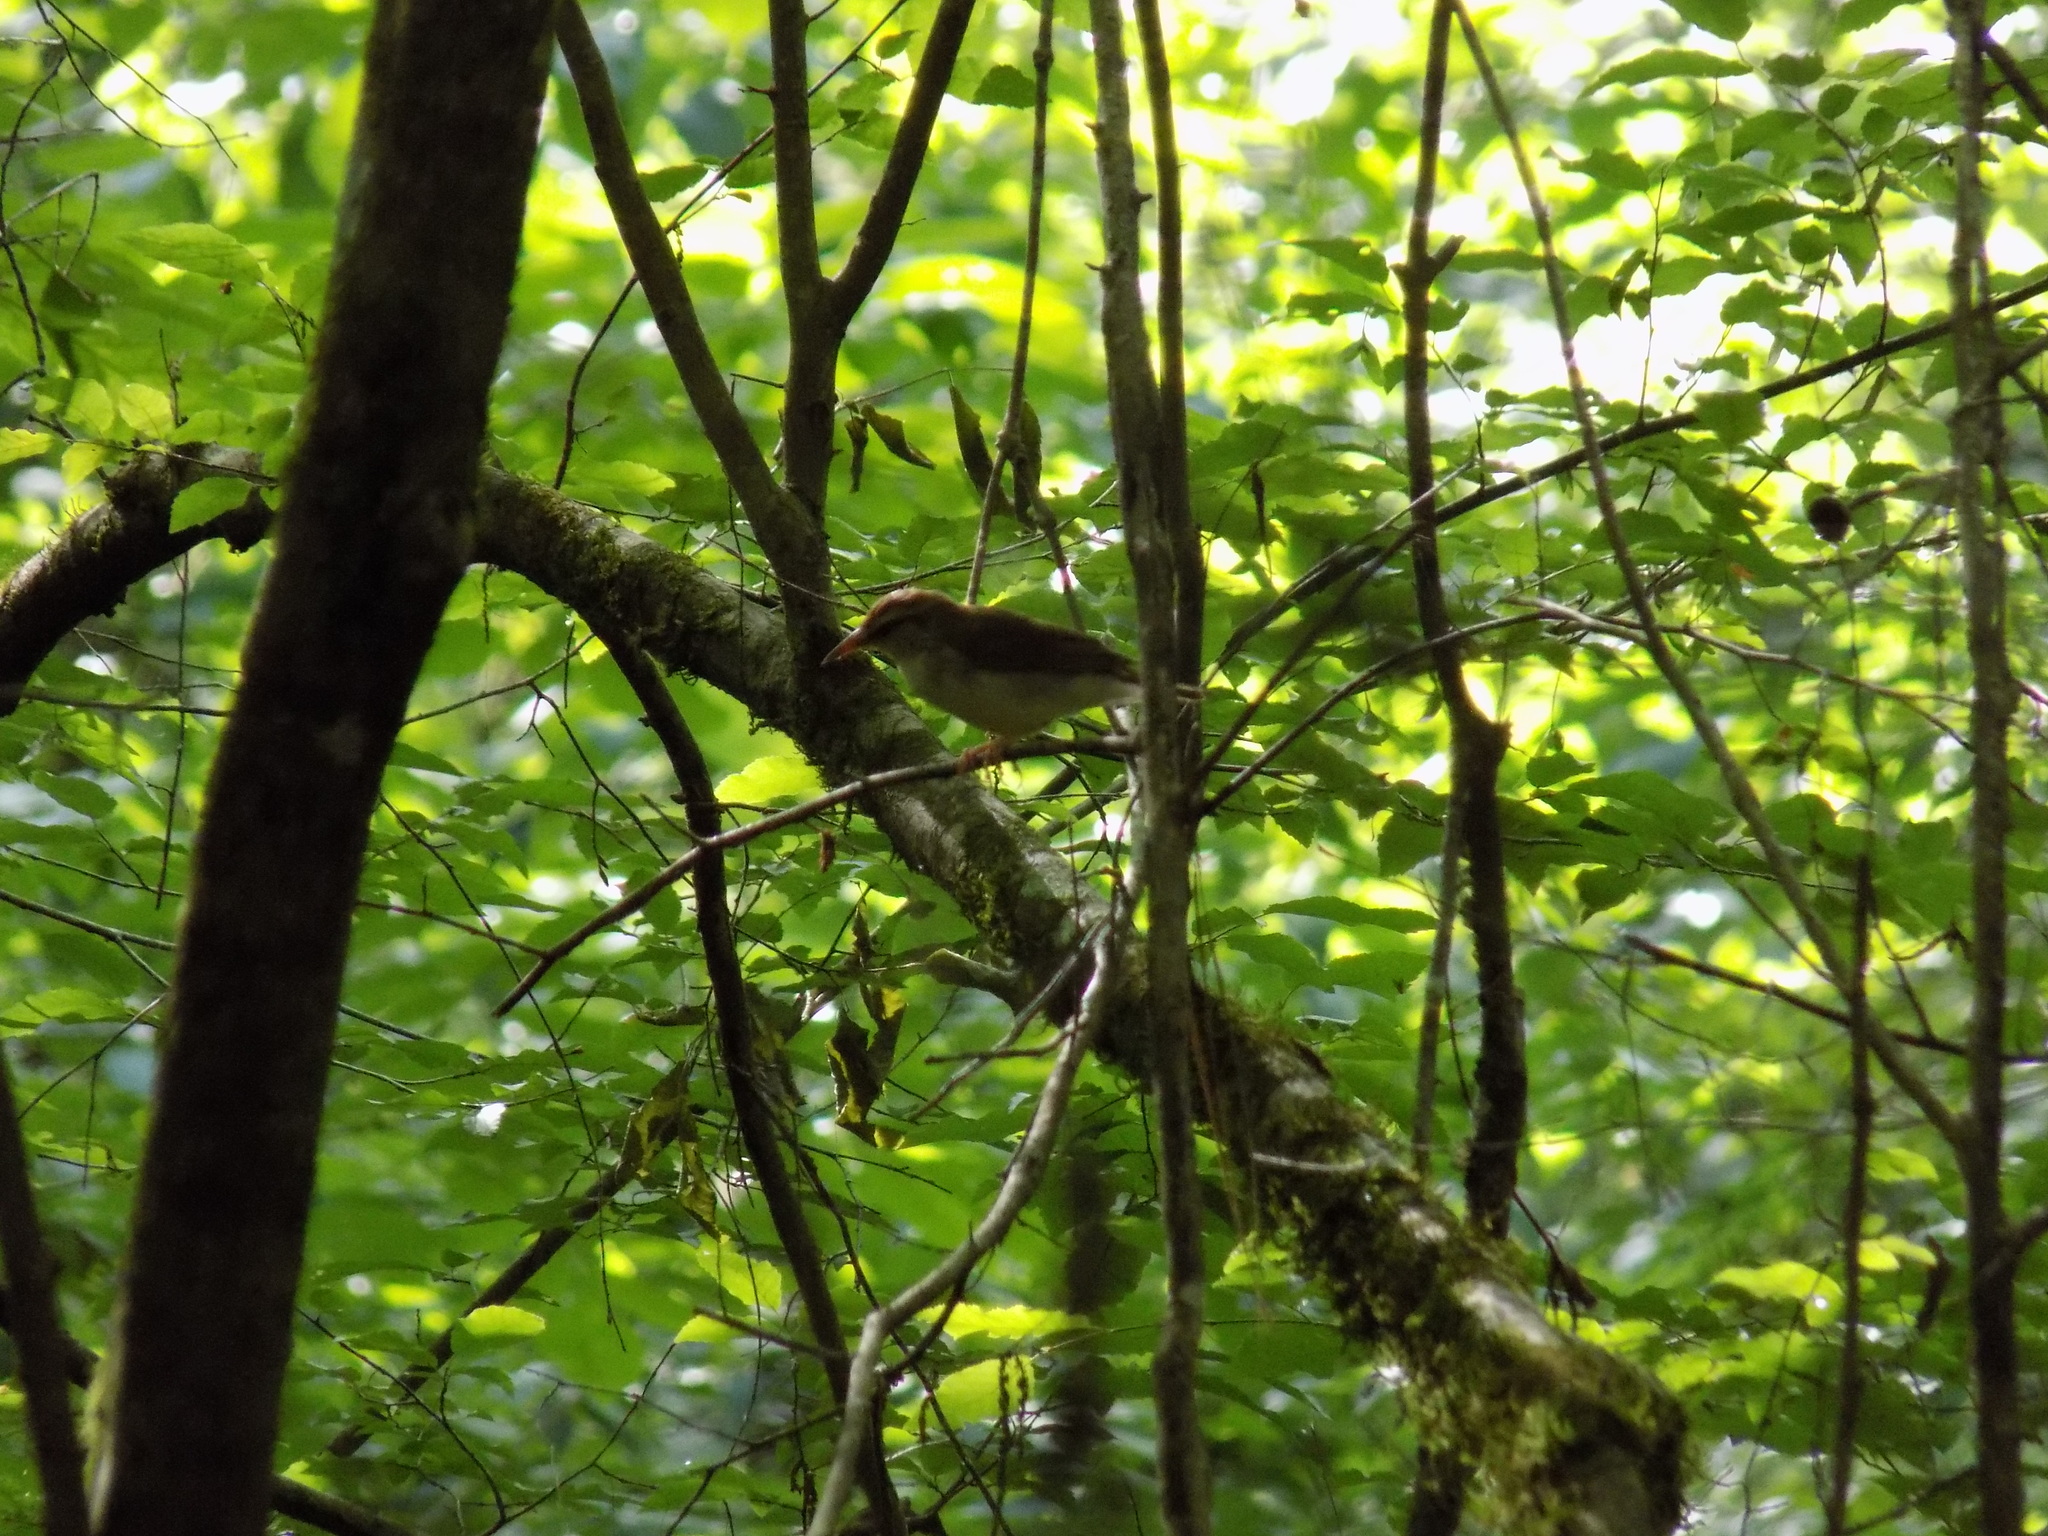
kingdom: Animalia
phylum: Chordata
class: Aves
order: Passeriformes
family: Parulidae
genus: Limnothlypis
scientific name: Limnothlypis swainsonii
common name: Swainson's warbler
